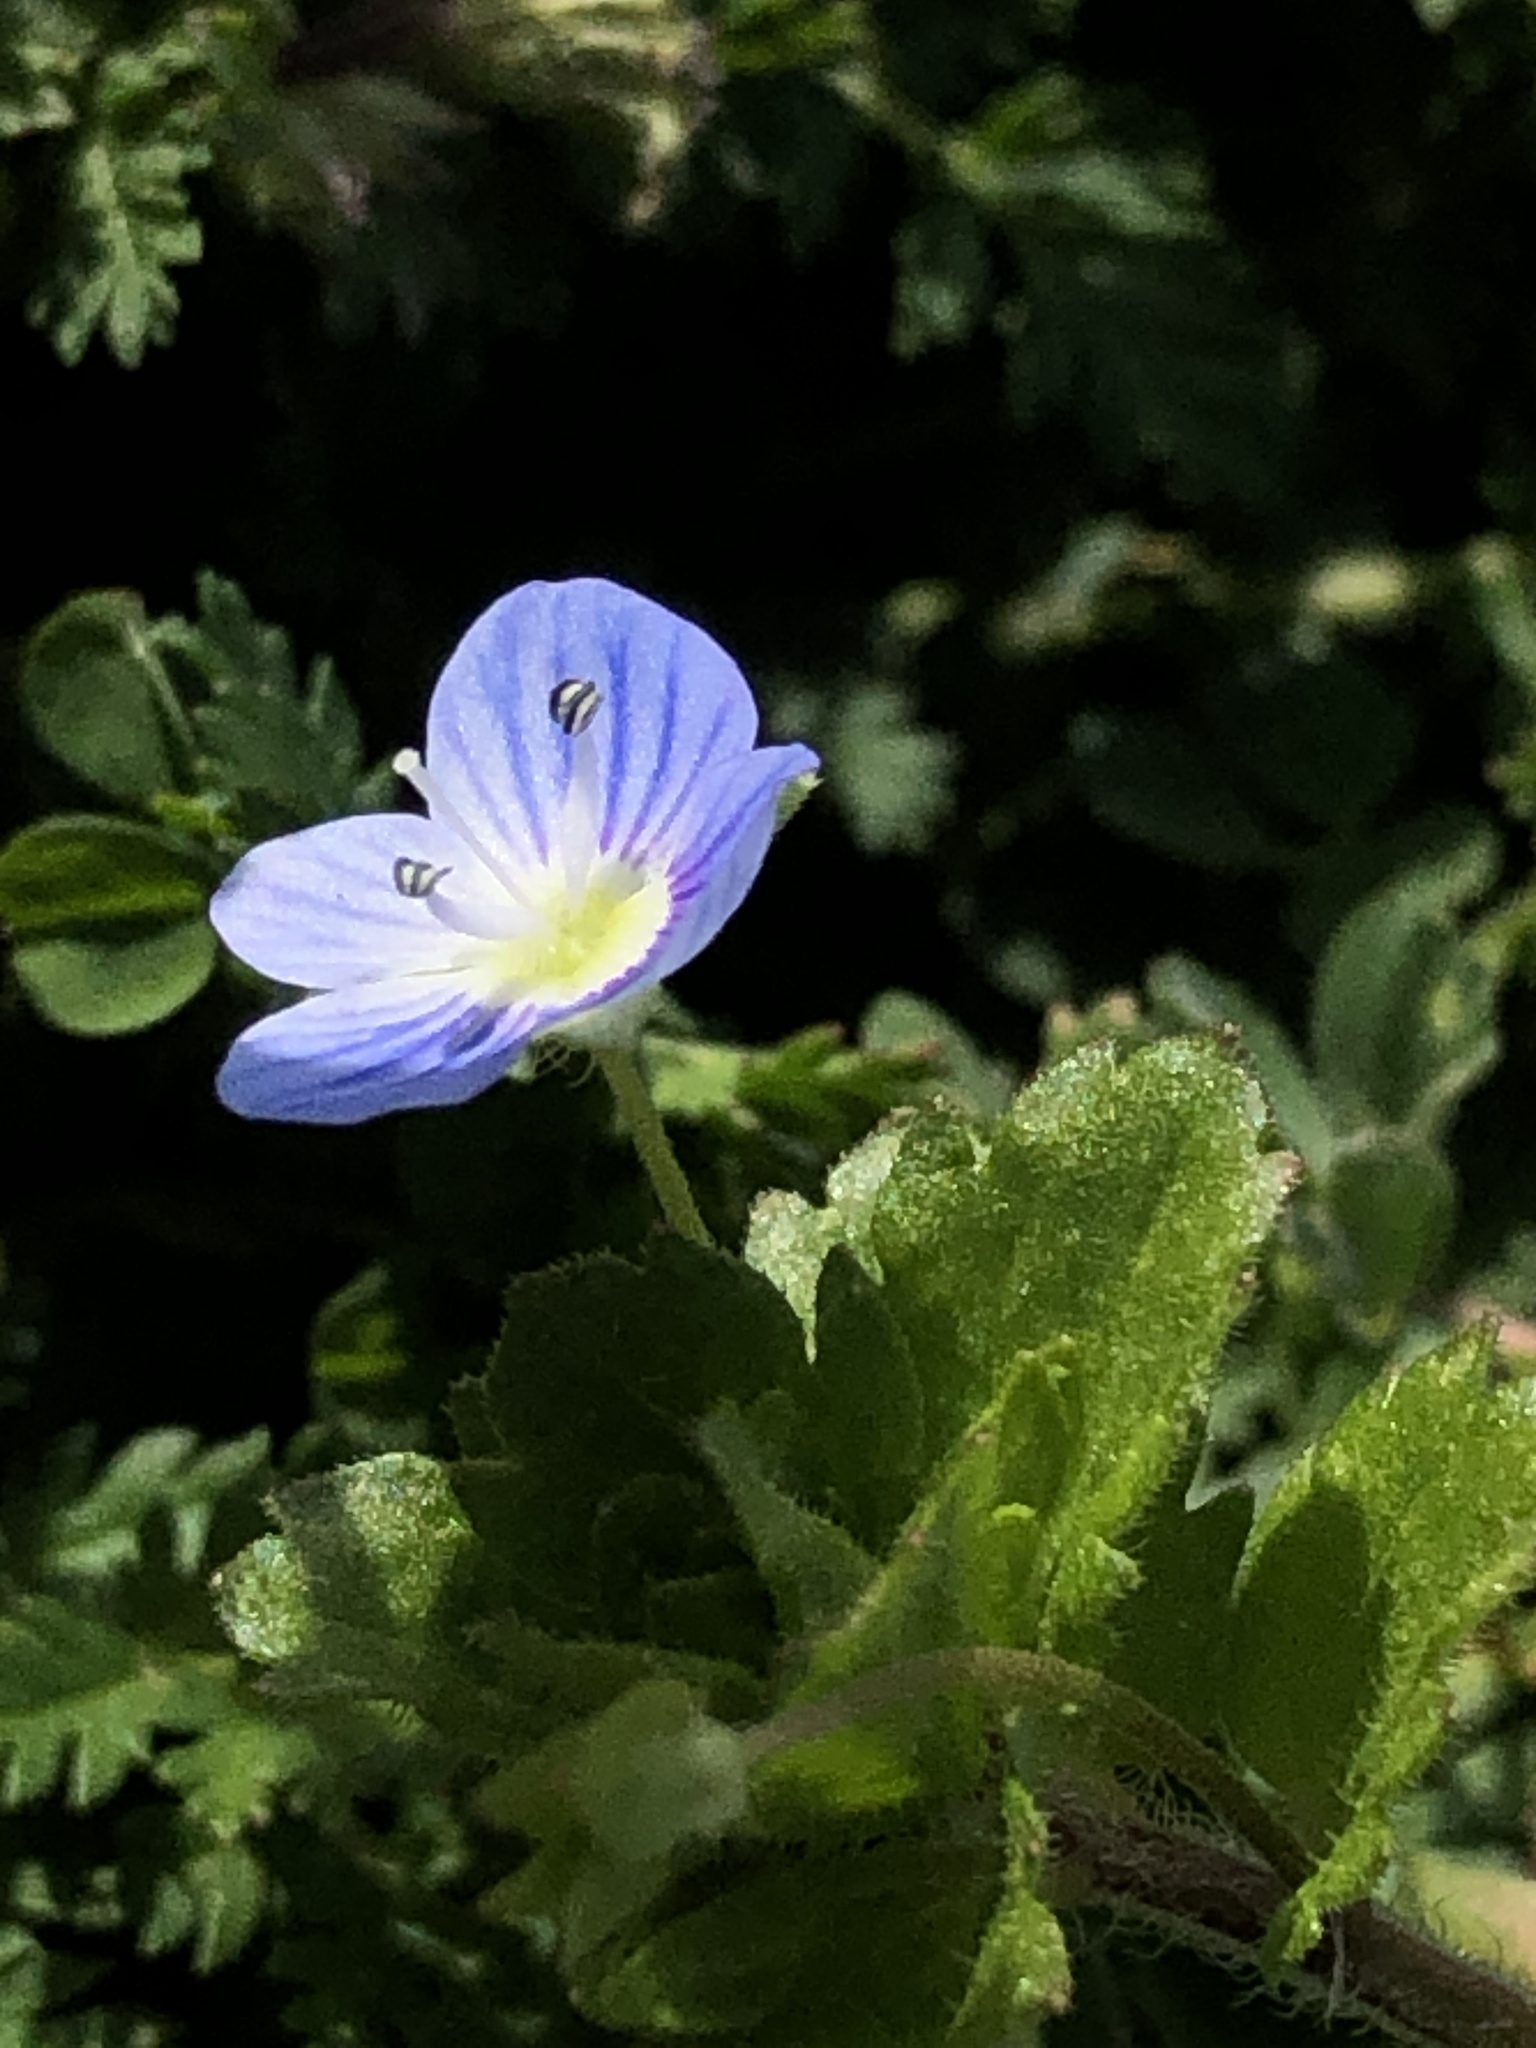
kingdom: Plantae
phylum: Tracheophyta
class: Magnoliopsida
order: Lamiales
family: Plantaginaceae
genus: Veronica
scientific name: Veronica persica
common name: Common field-speedwell
